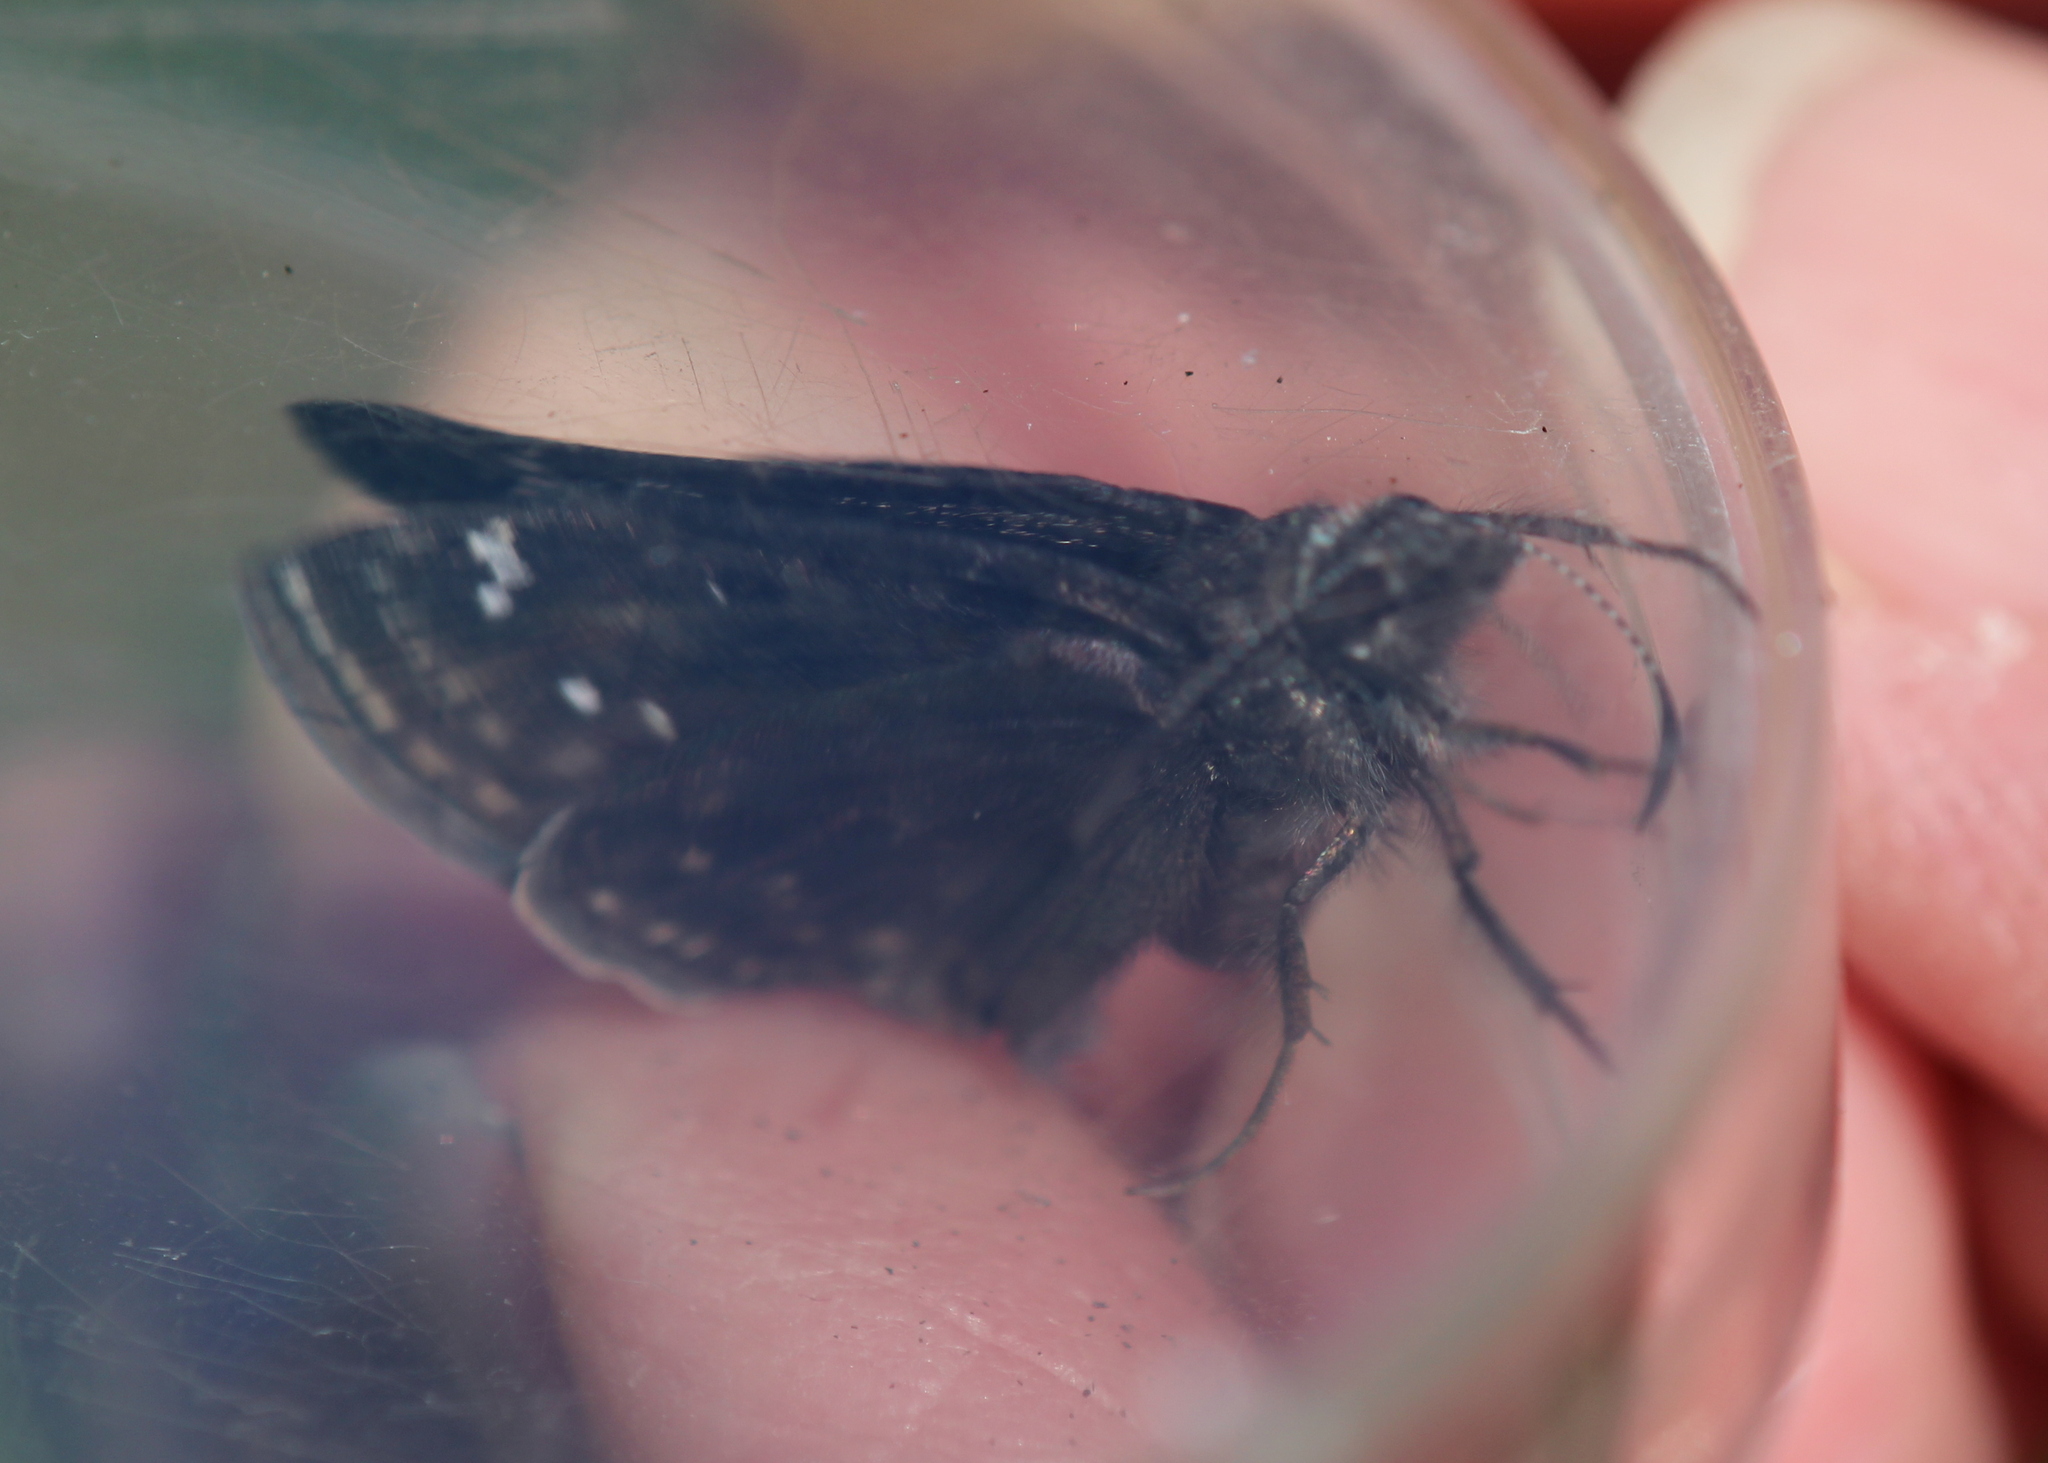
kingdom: Animalia
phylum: Arthropoda
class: Insecta
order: Lepidoptera
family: Hesperiidae
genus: Erynnis
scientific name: Erynnis baptisiae
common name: Wild indigo duskywing
